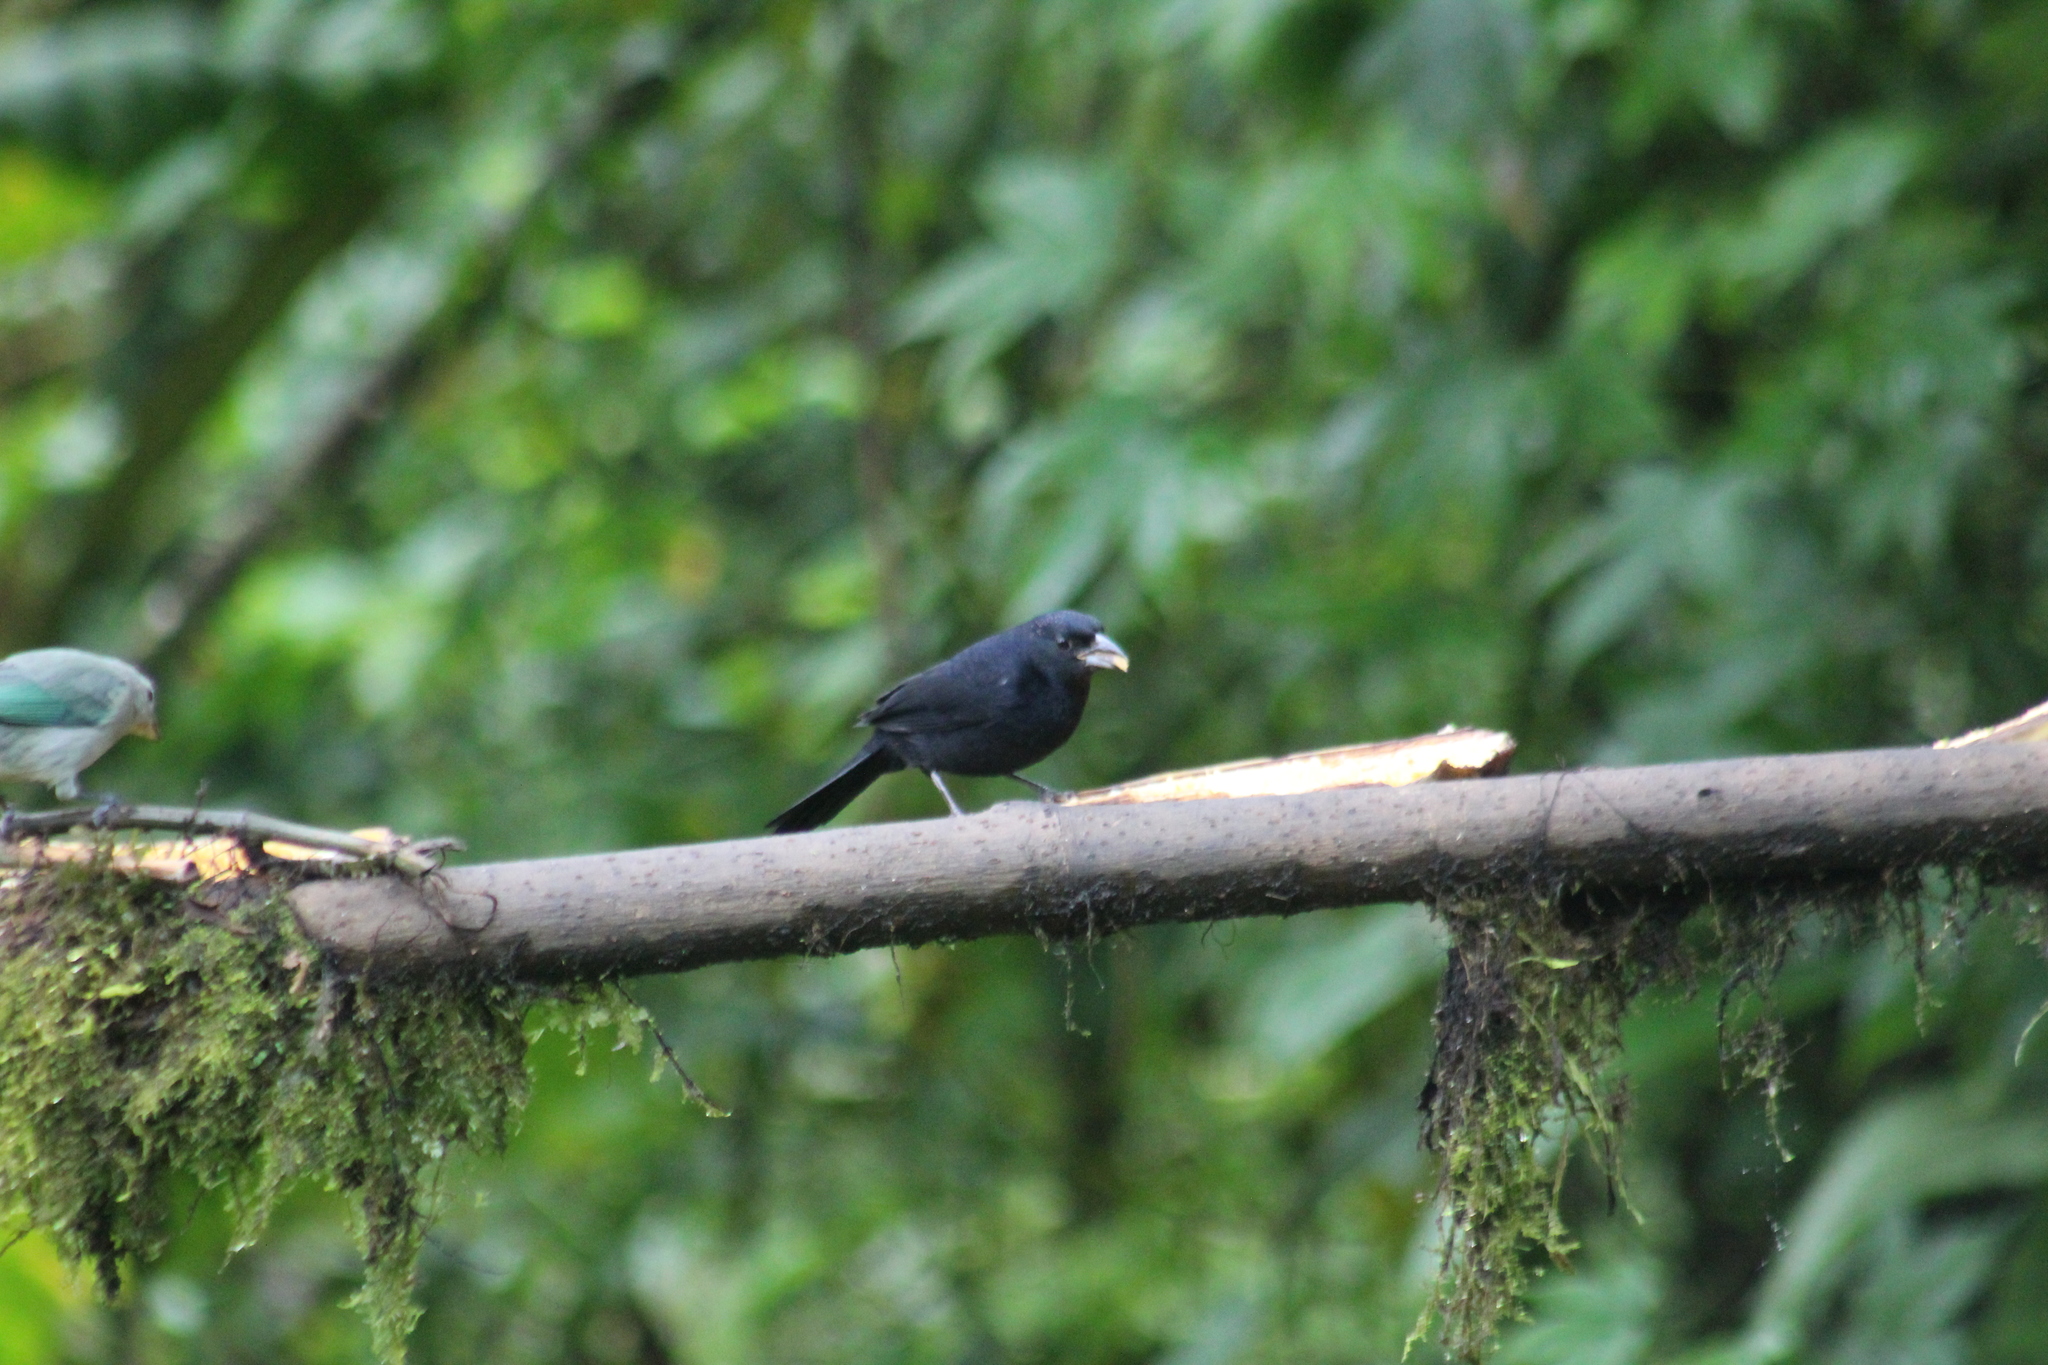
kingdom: Animalia
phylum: Chordata
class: Aves
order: Passeriformes
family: Thraupidae
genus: Tachyphonus
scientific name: Tachyphonus rufus
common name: White-lined tanager
